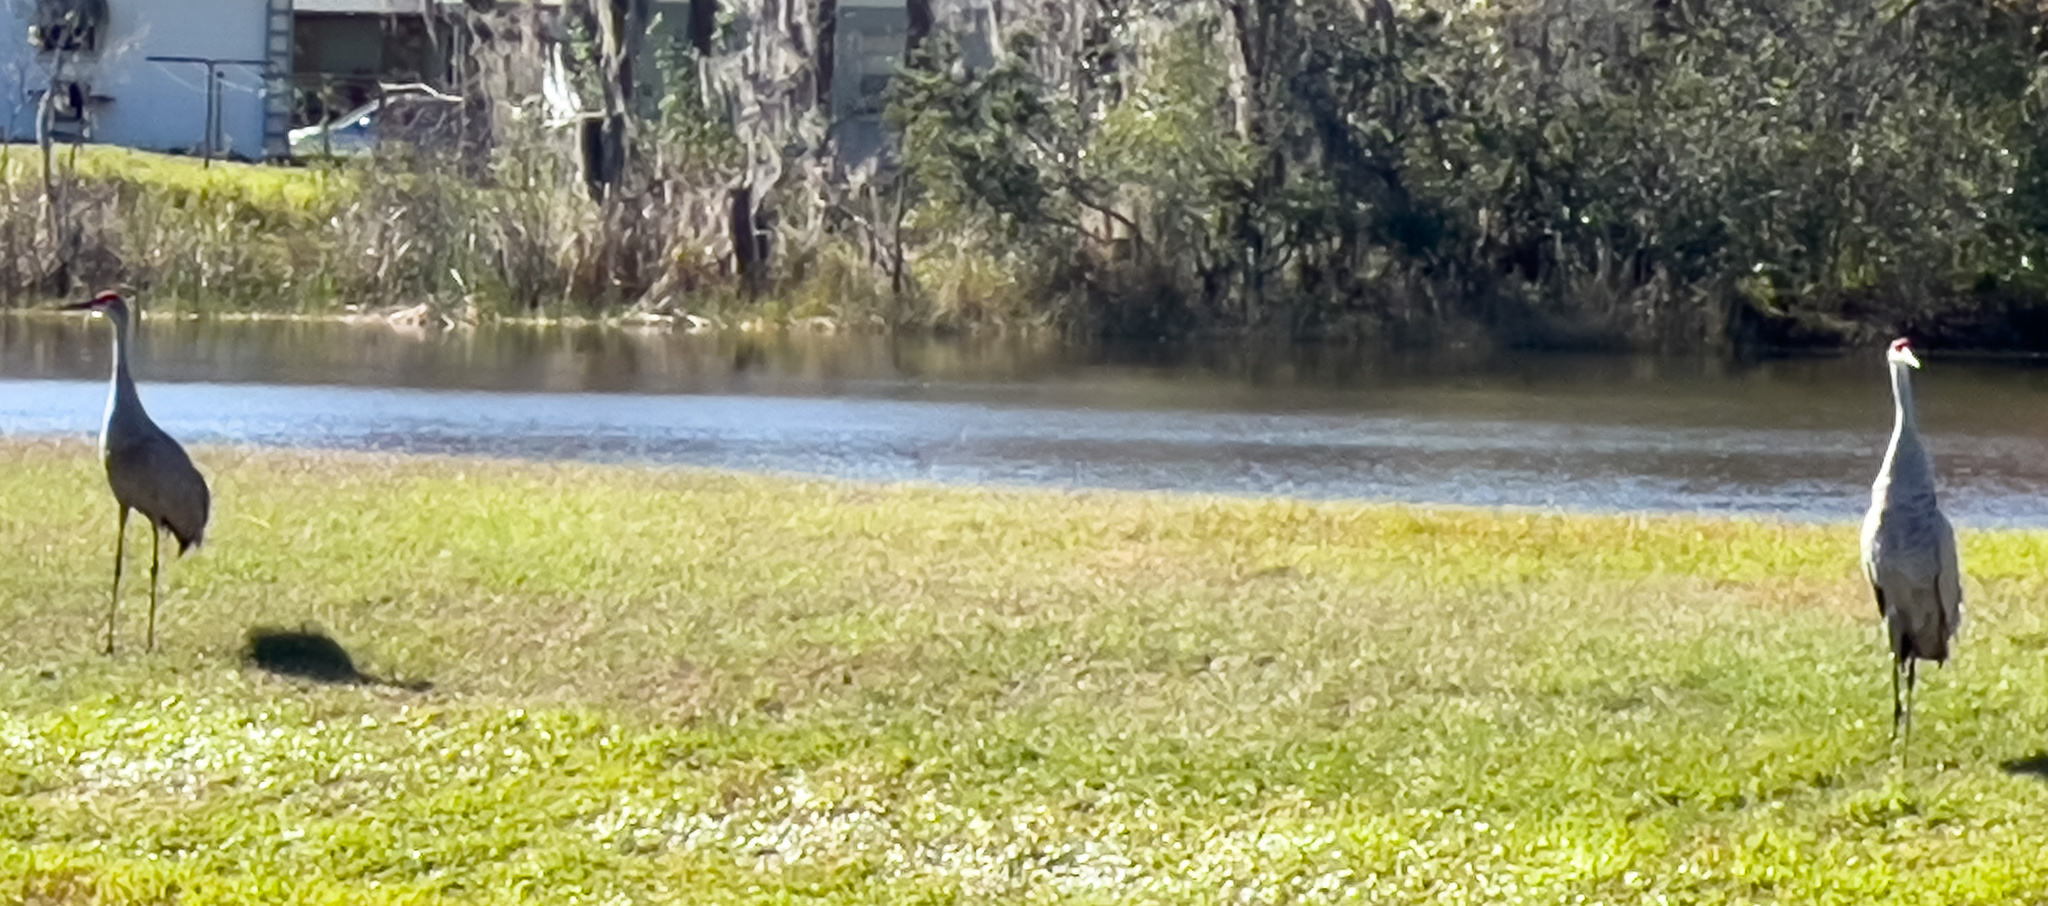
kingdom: Animalia
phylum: Chordata
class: Aves
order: Gruiformes
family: Gruidae
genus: Grus
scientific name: Grus canadensis
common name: Sandhill crane
